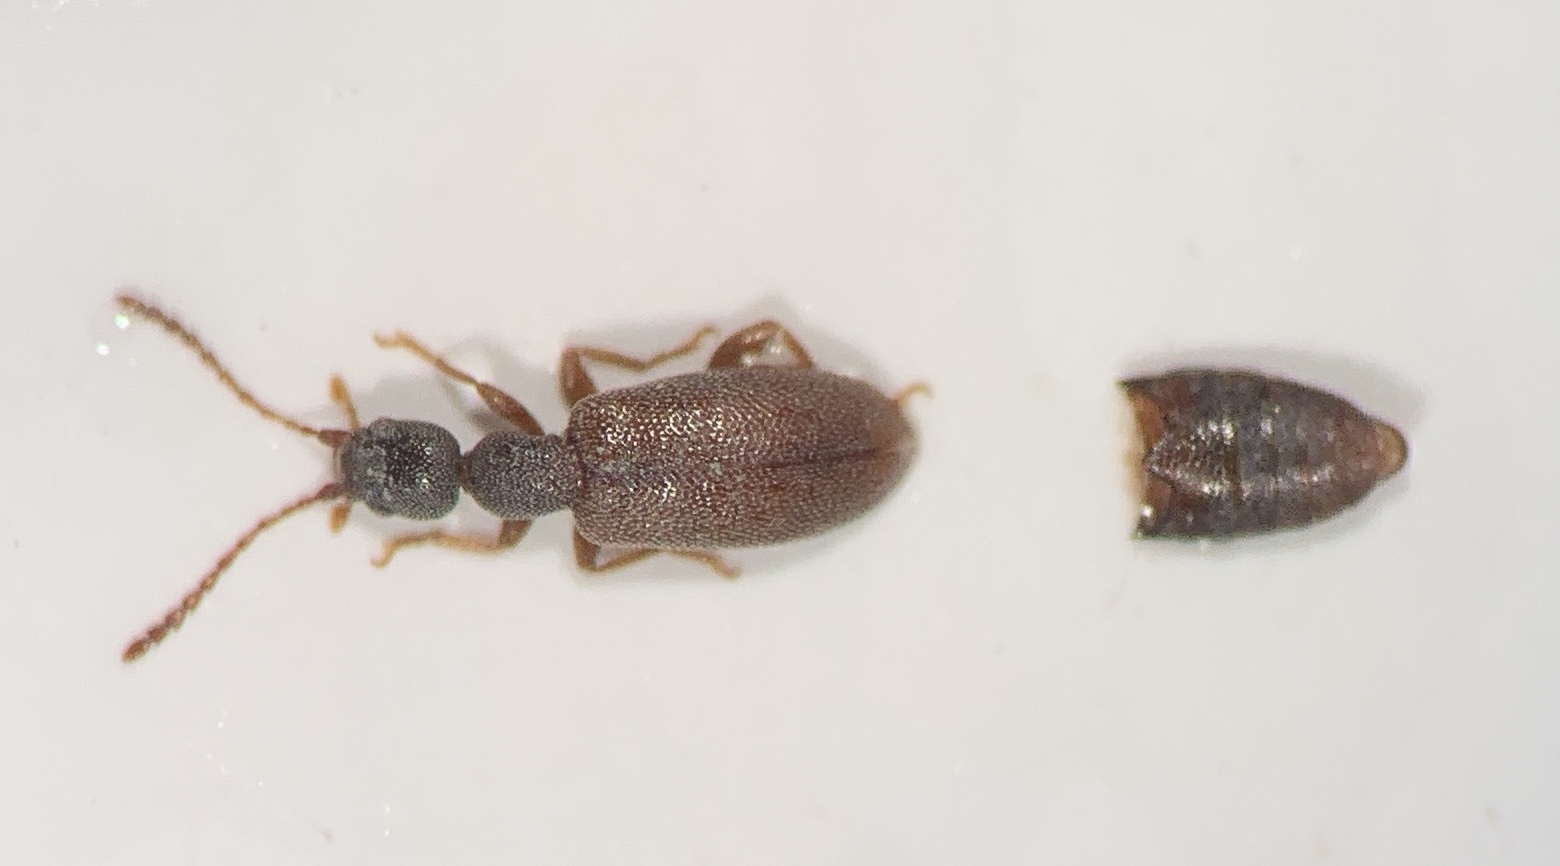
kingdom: Animalia
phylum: Arthropoda
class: Insecta
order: Coleoptera
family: Anthicidae
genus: Endomia
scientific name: Endomia tenuicollis
